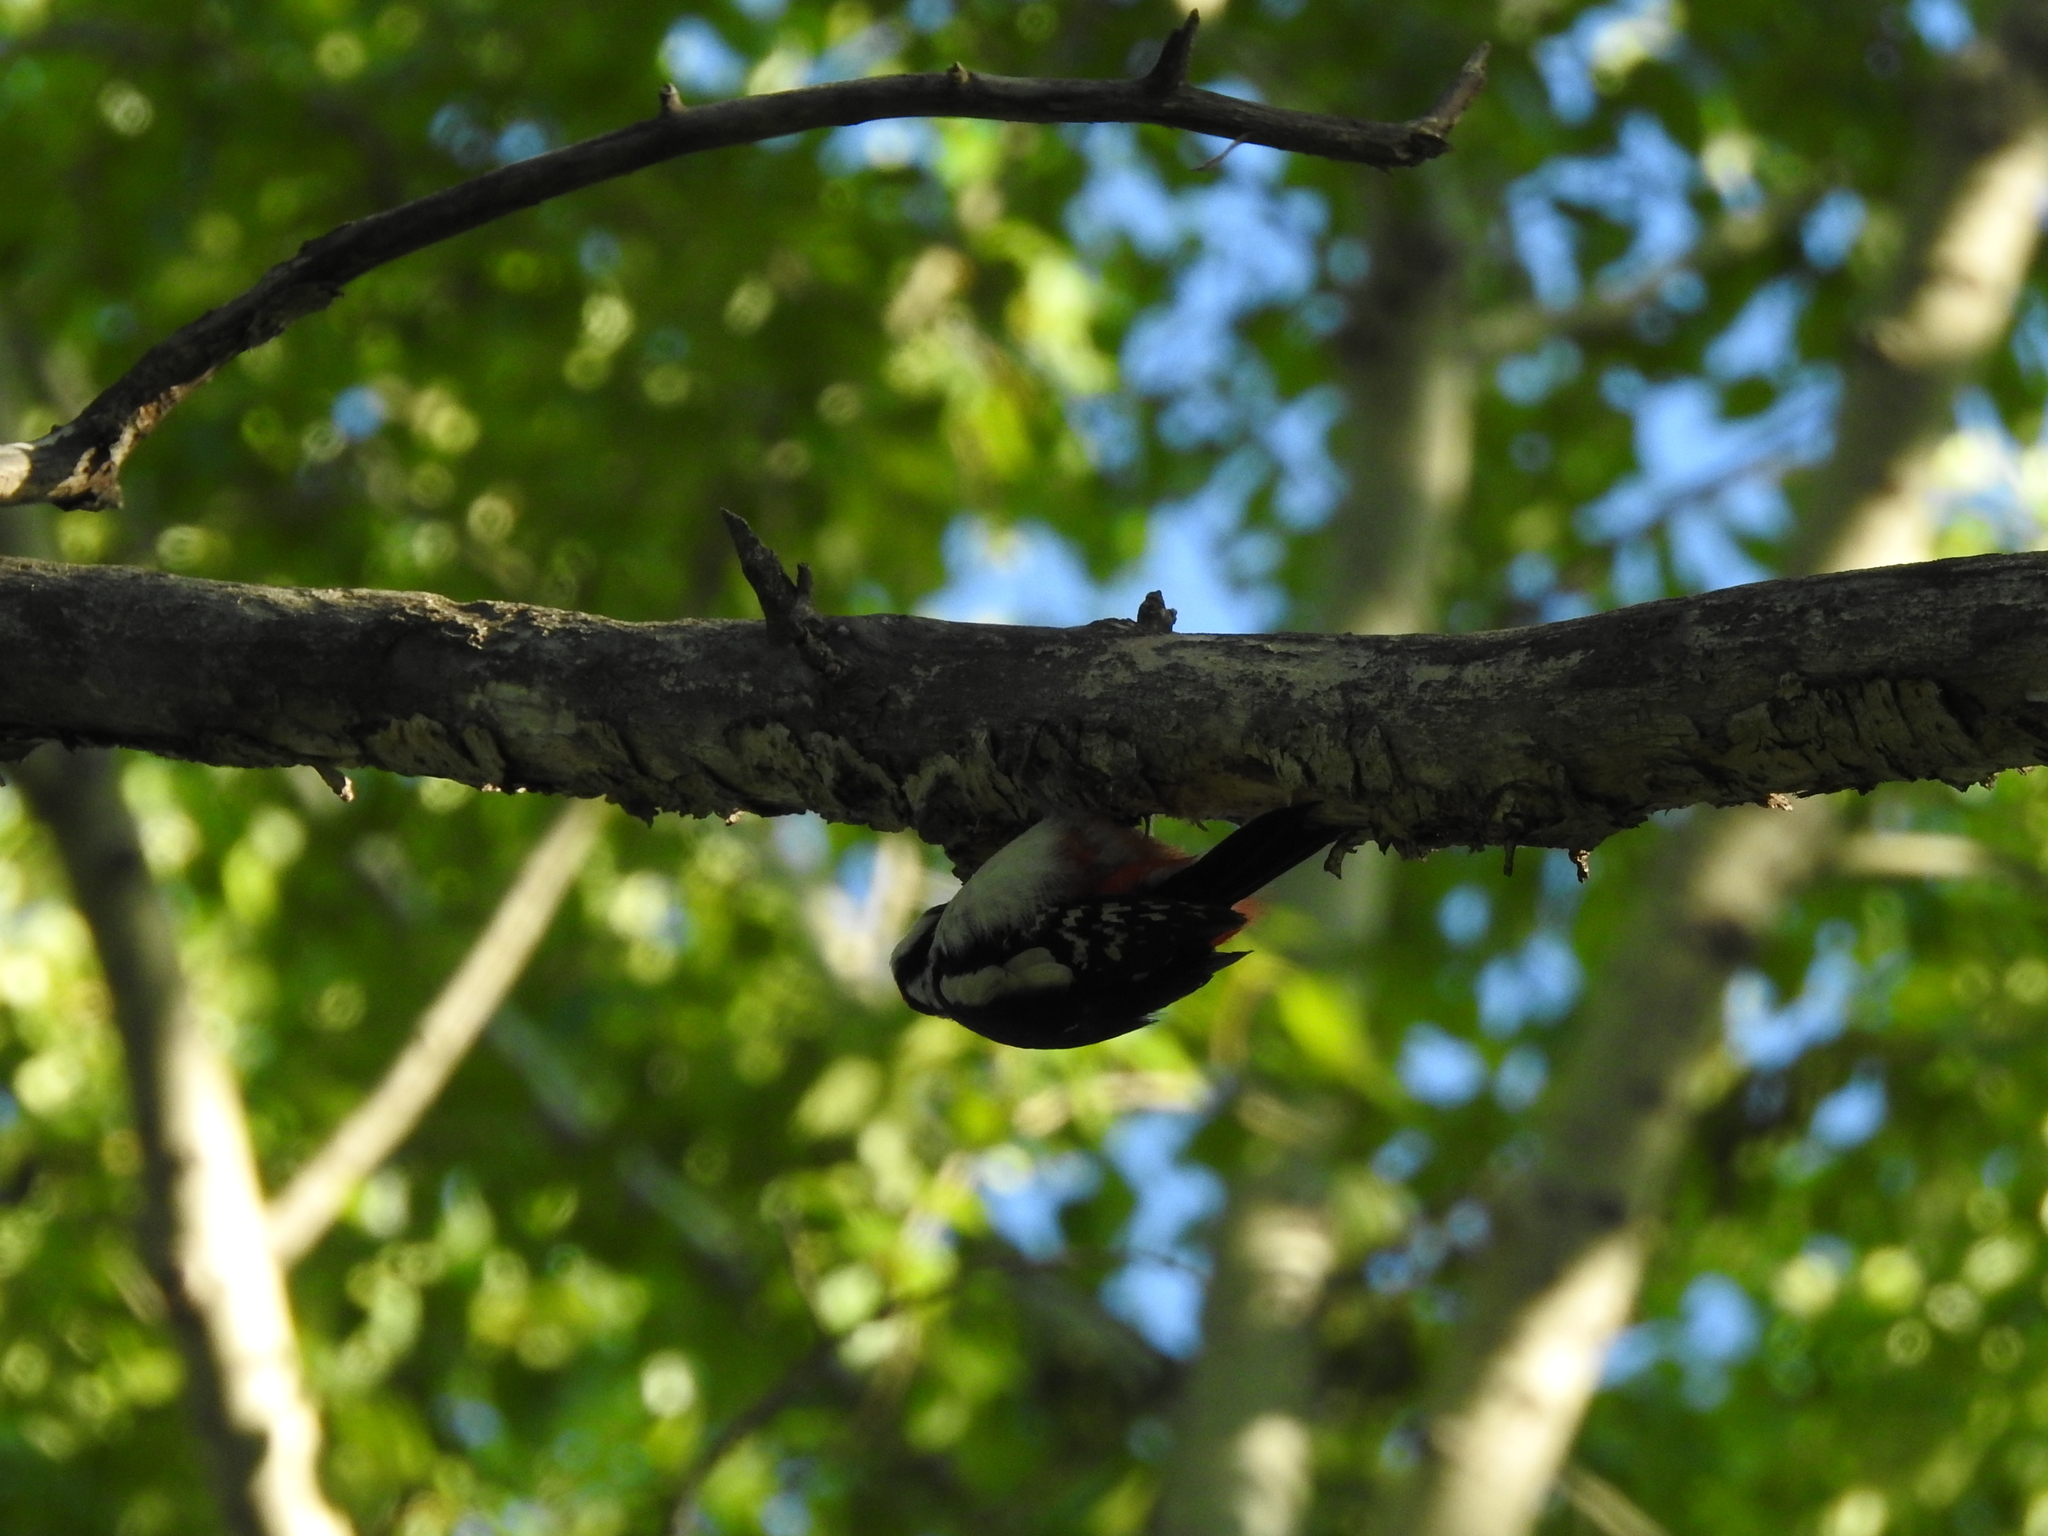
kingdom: Animalia
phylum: Chordata
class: Aves
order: Piciformes
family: Picidae
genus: Dendrocopos
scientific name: Dendrocopos major
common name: Great spotted woodpecker
